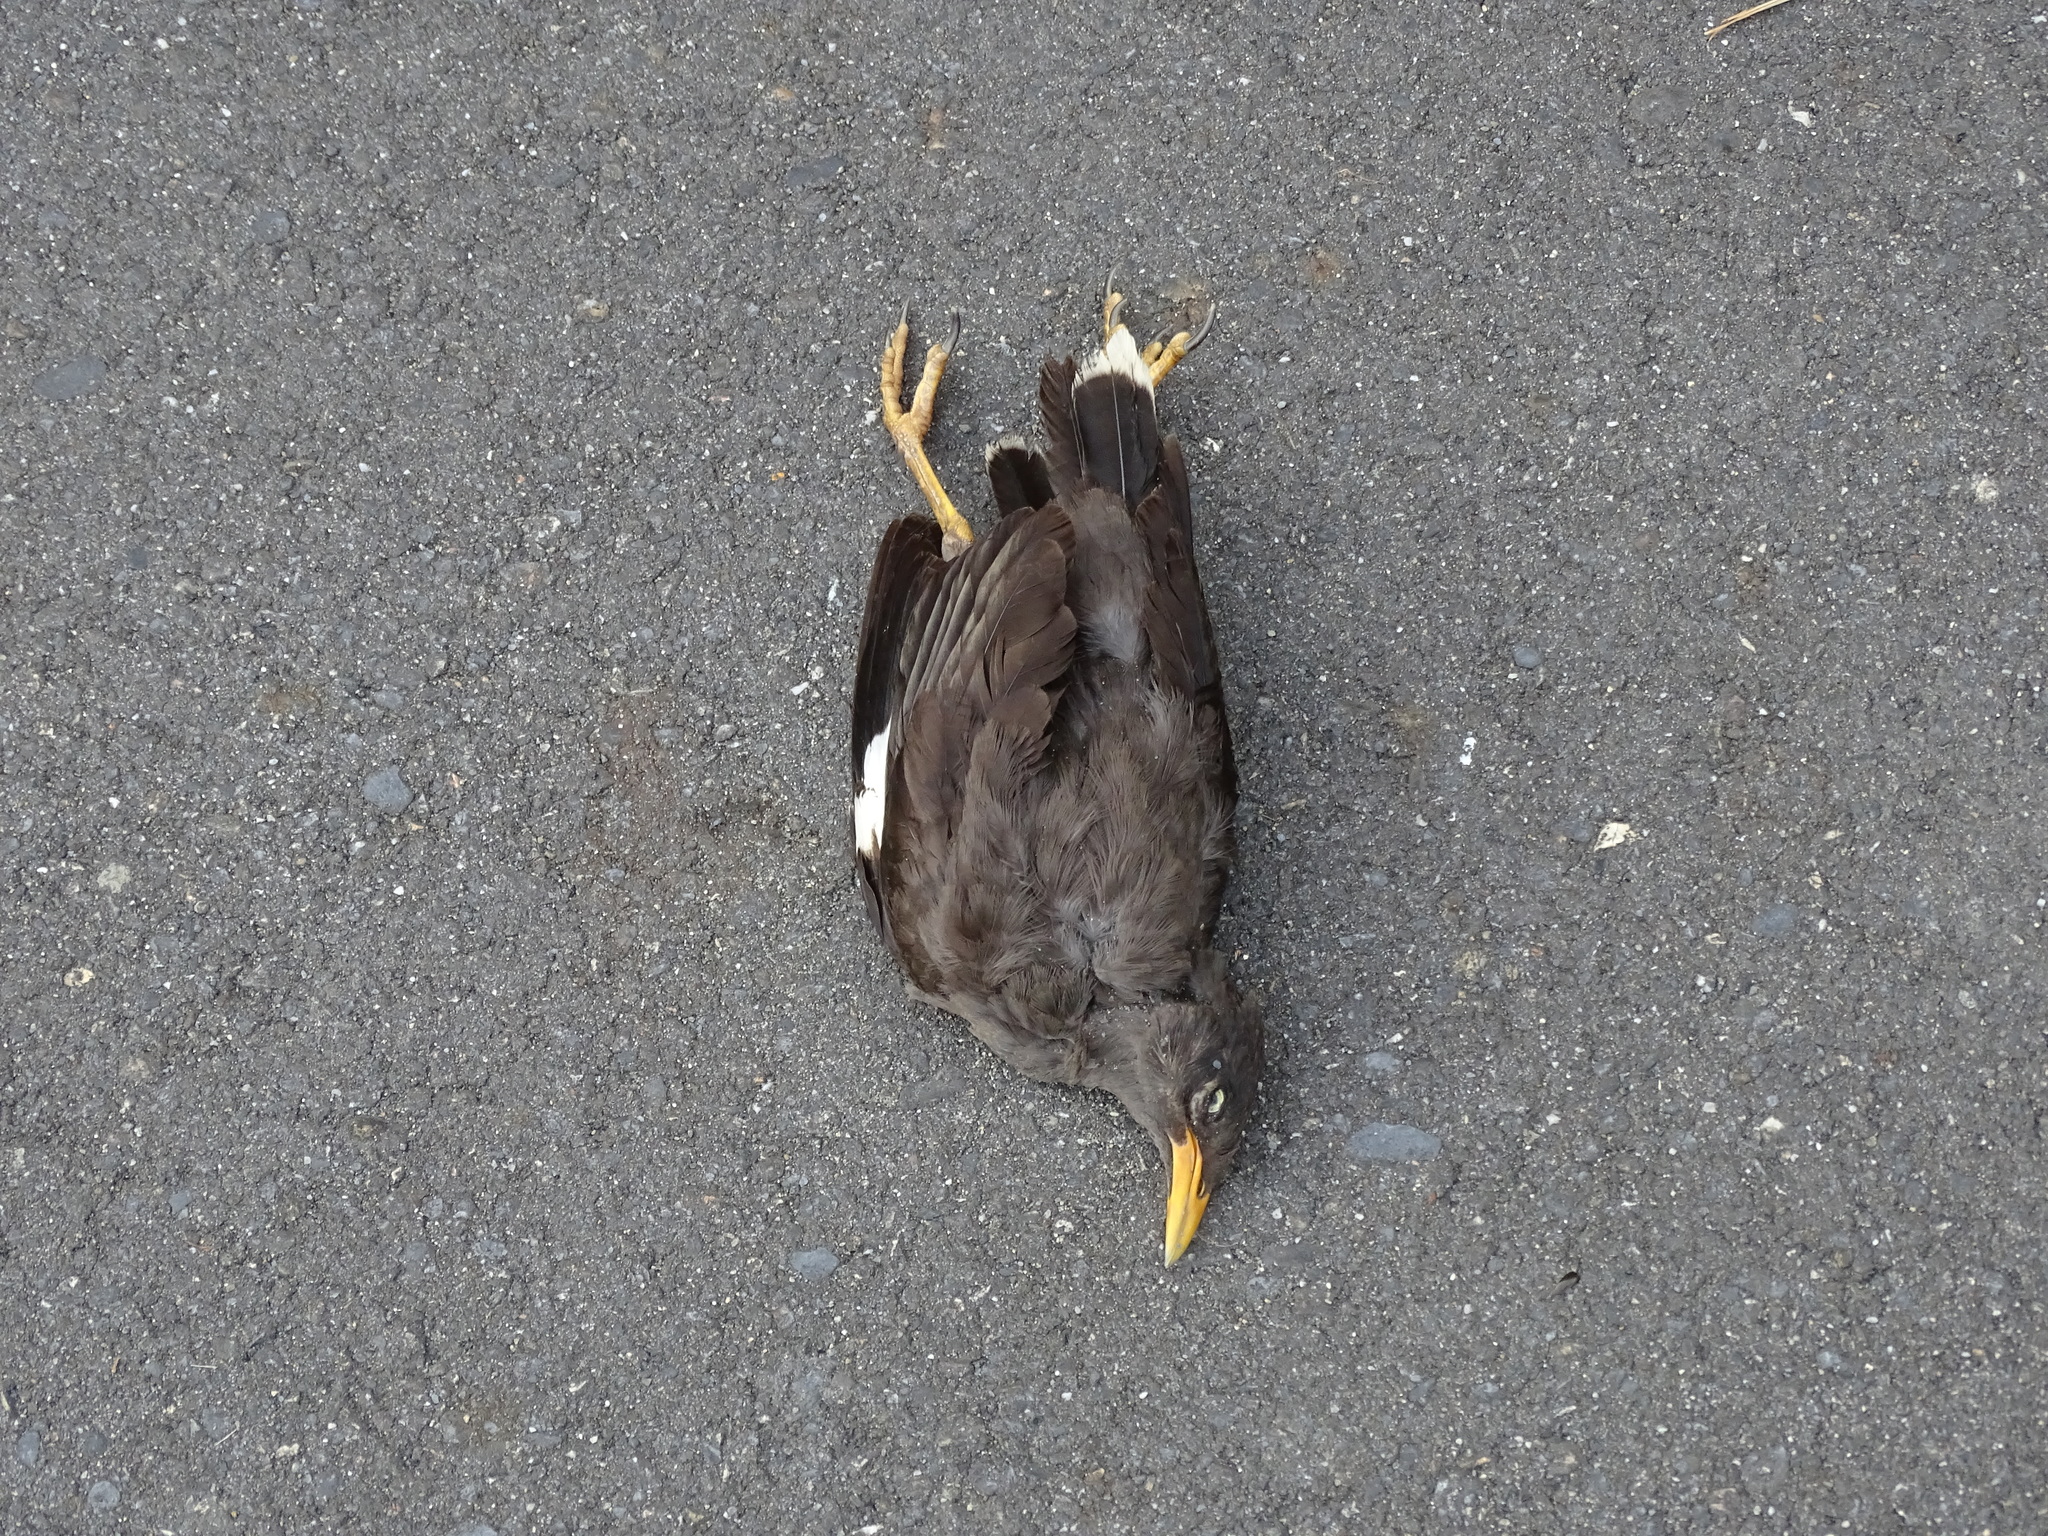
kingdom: Animalia
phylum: Chordata
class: Aves
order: Passeriformes
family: Sturnidae
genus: Acridotheres
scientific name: Acridotheres javanicus
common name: Javan myna
